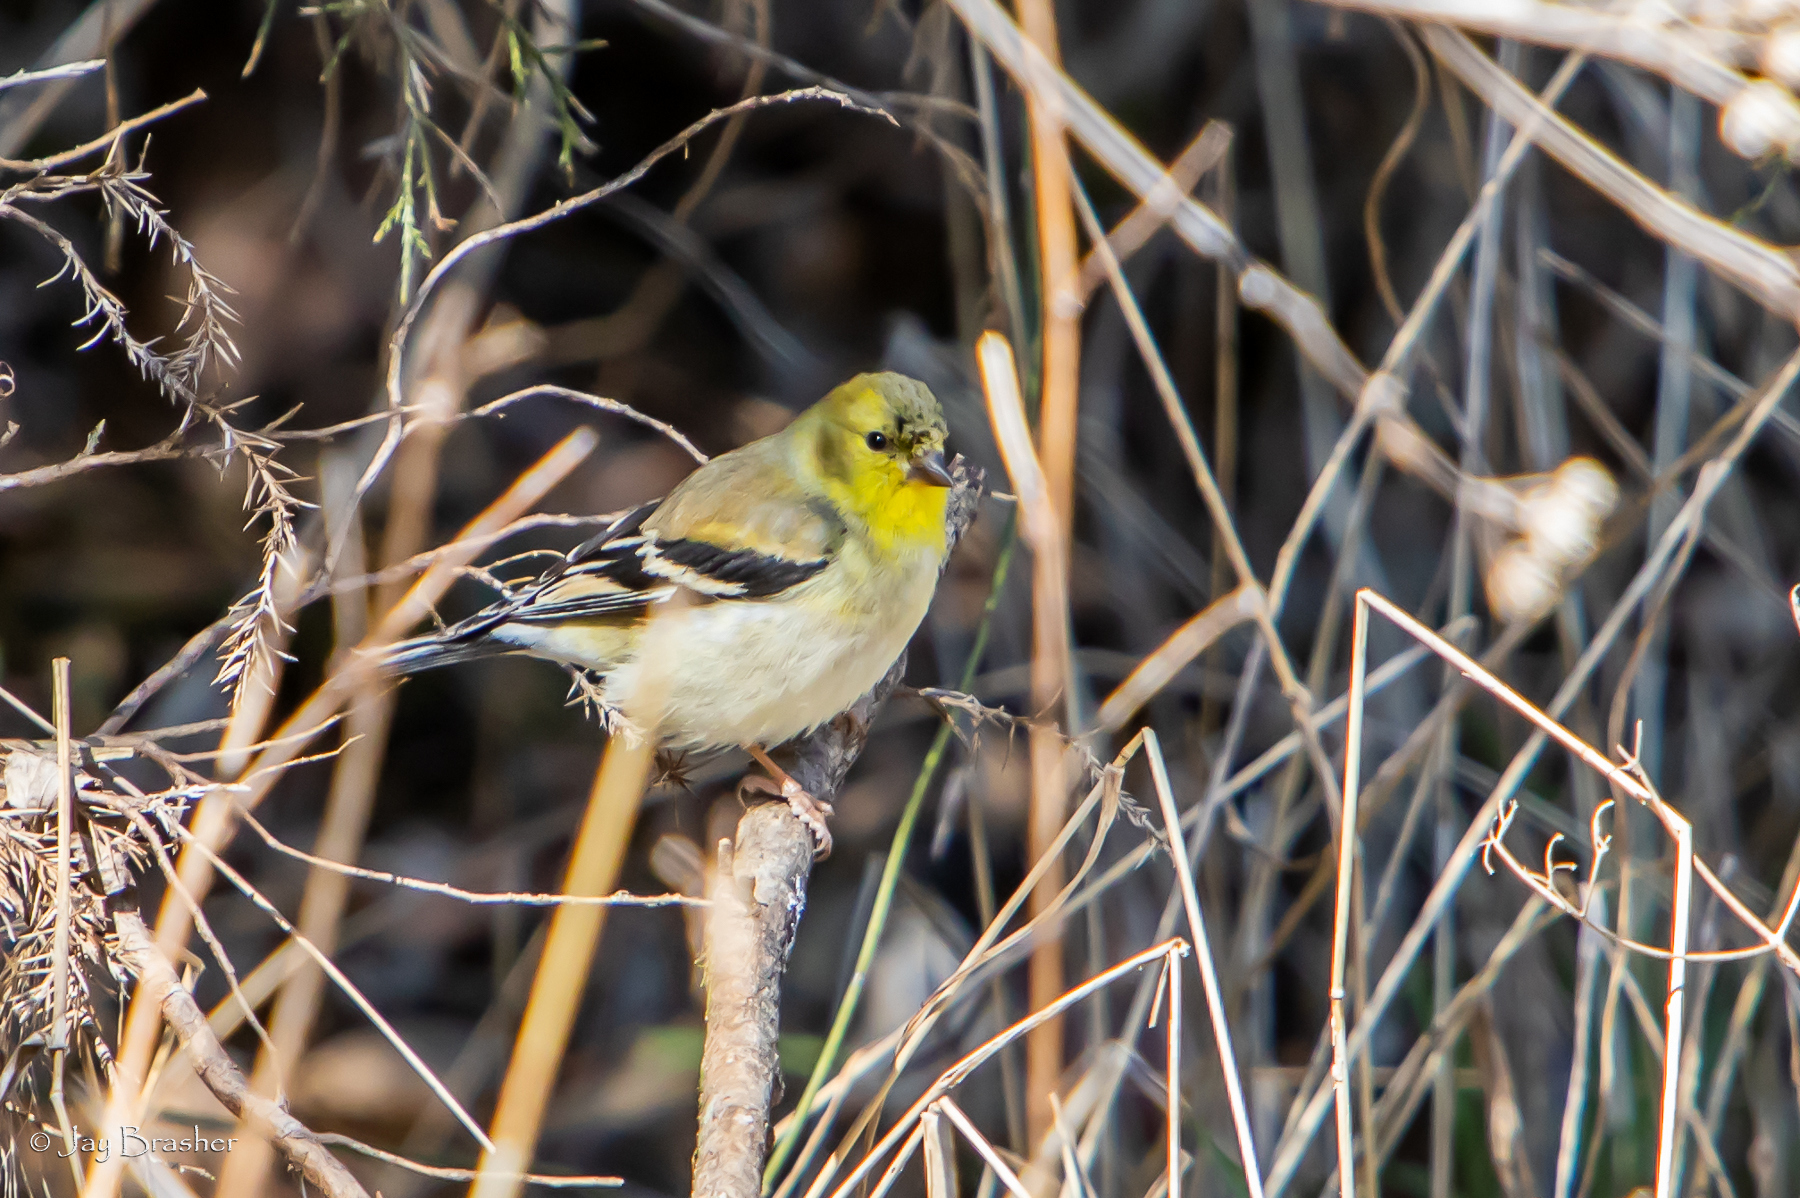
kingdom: Animalia
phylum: Chordata
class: Aves
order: Passeriformes
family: Fringillidae
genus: Spinus
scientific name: Spinus tristis
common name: American goldfinch
